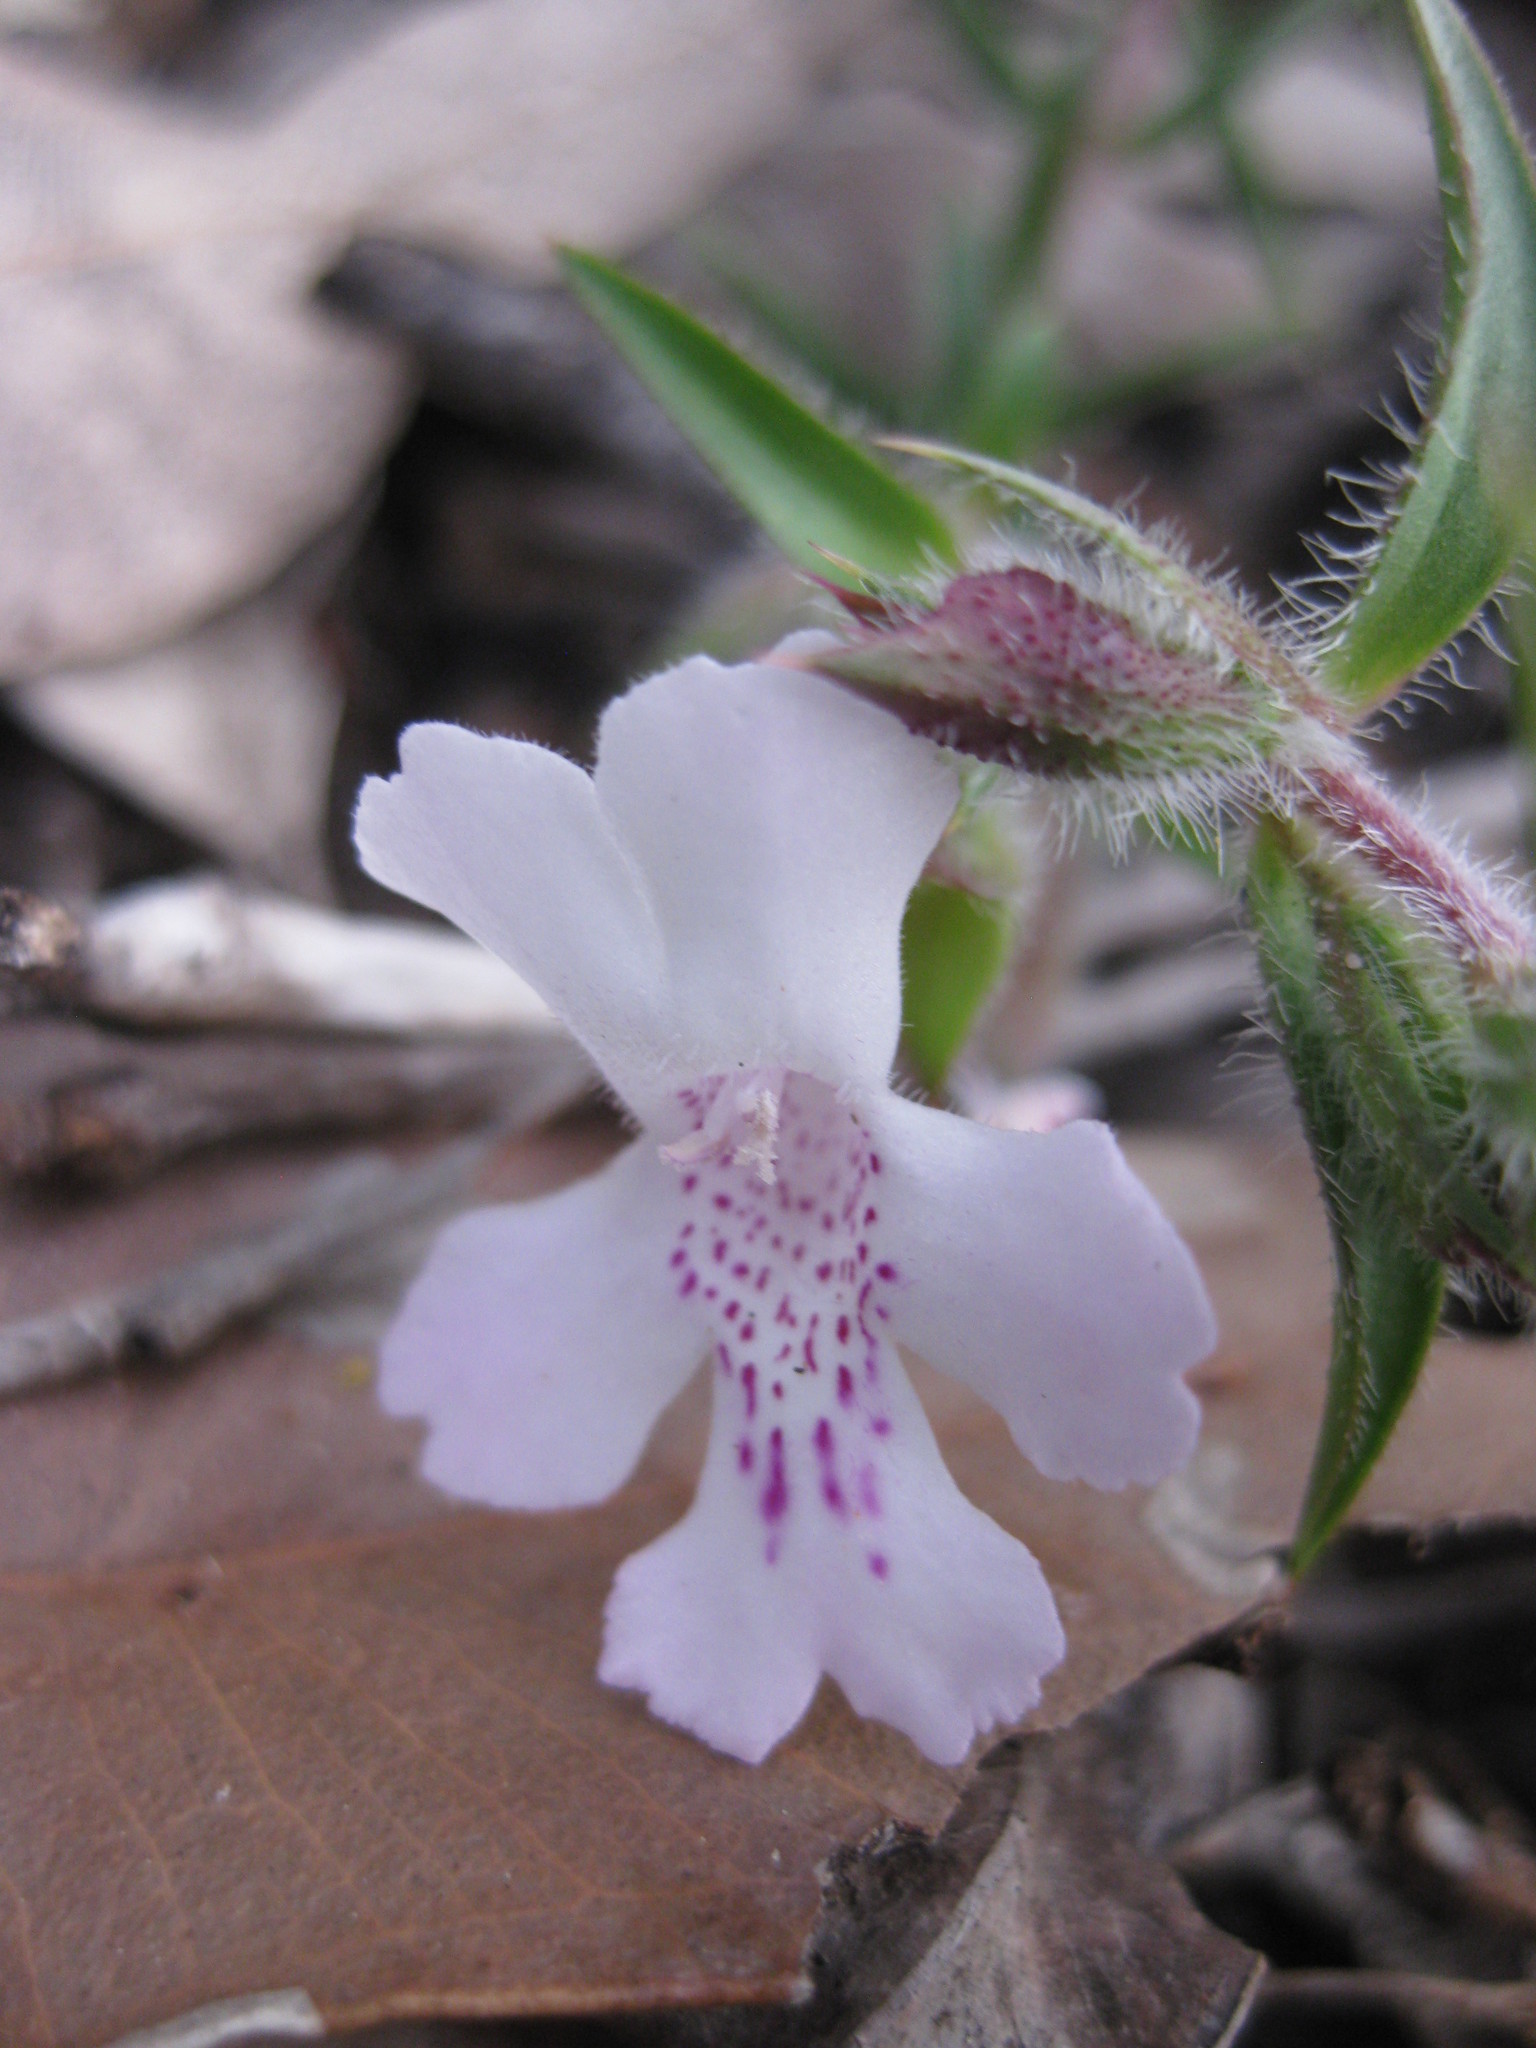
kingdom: Plantae
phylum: Tracheophyta
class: Magnoliopsida
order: Lamiales
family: Lamiaceae
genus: Hemiandra
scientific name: Hemiandra pungens
